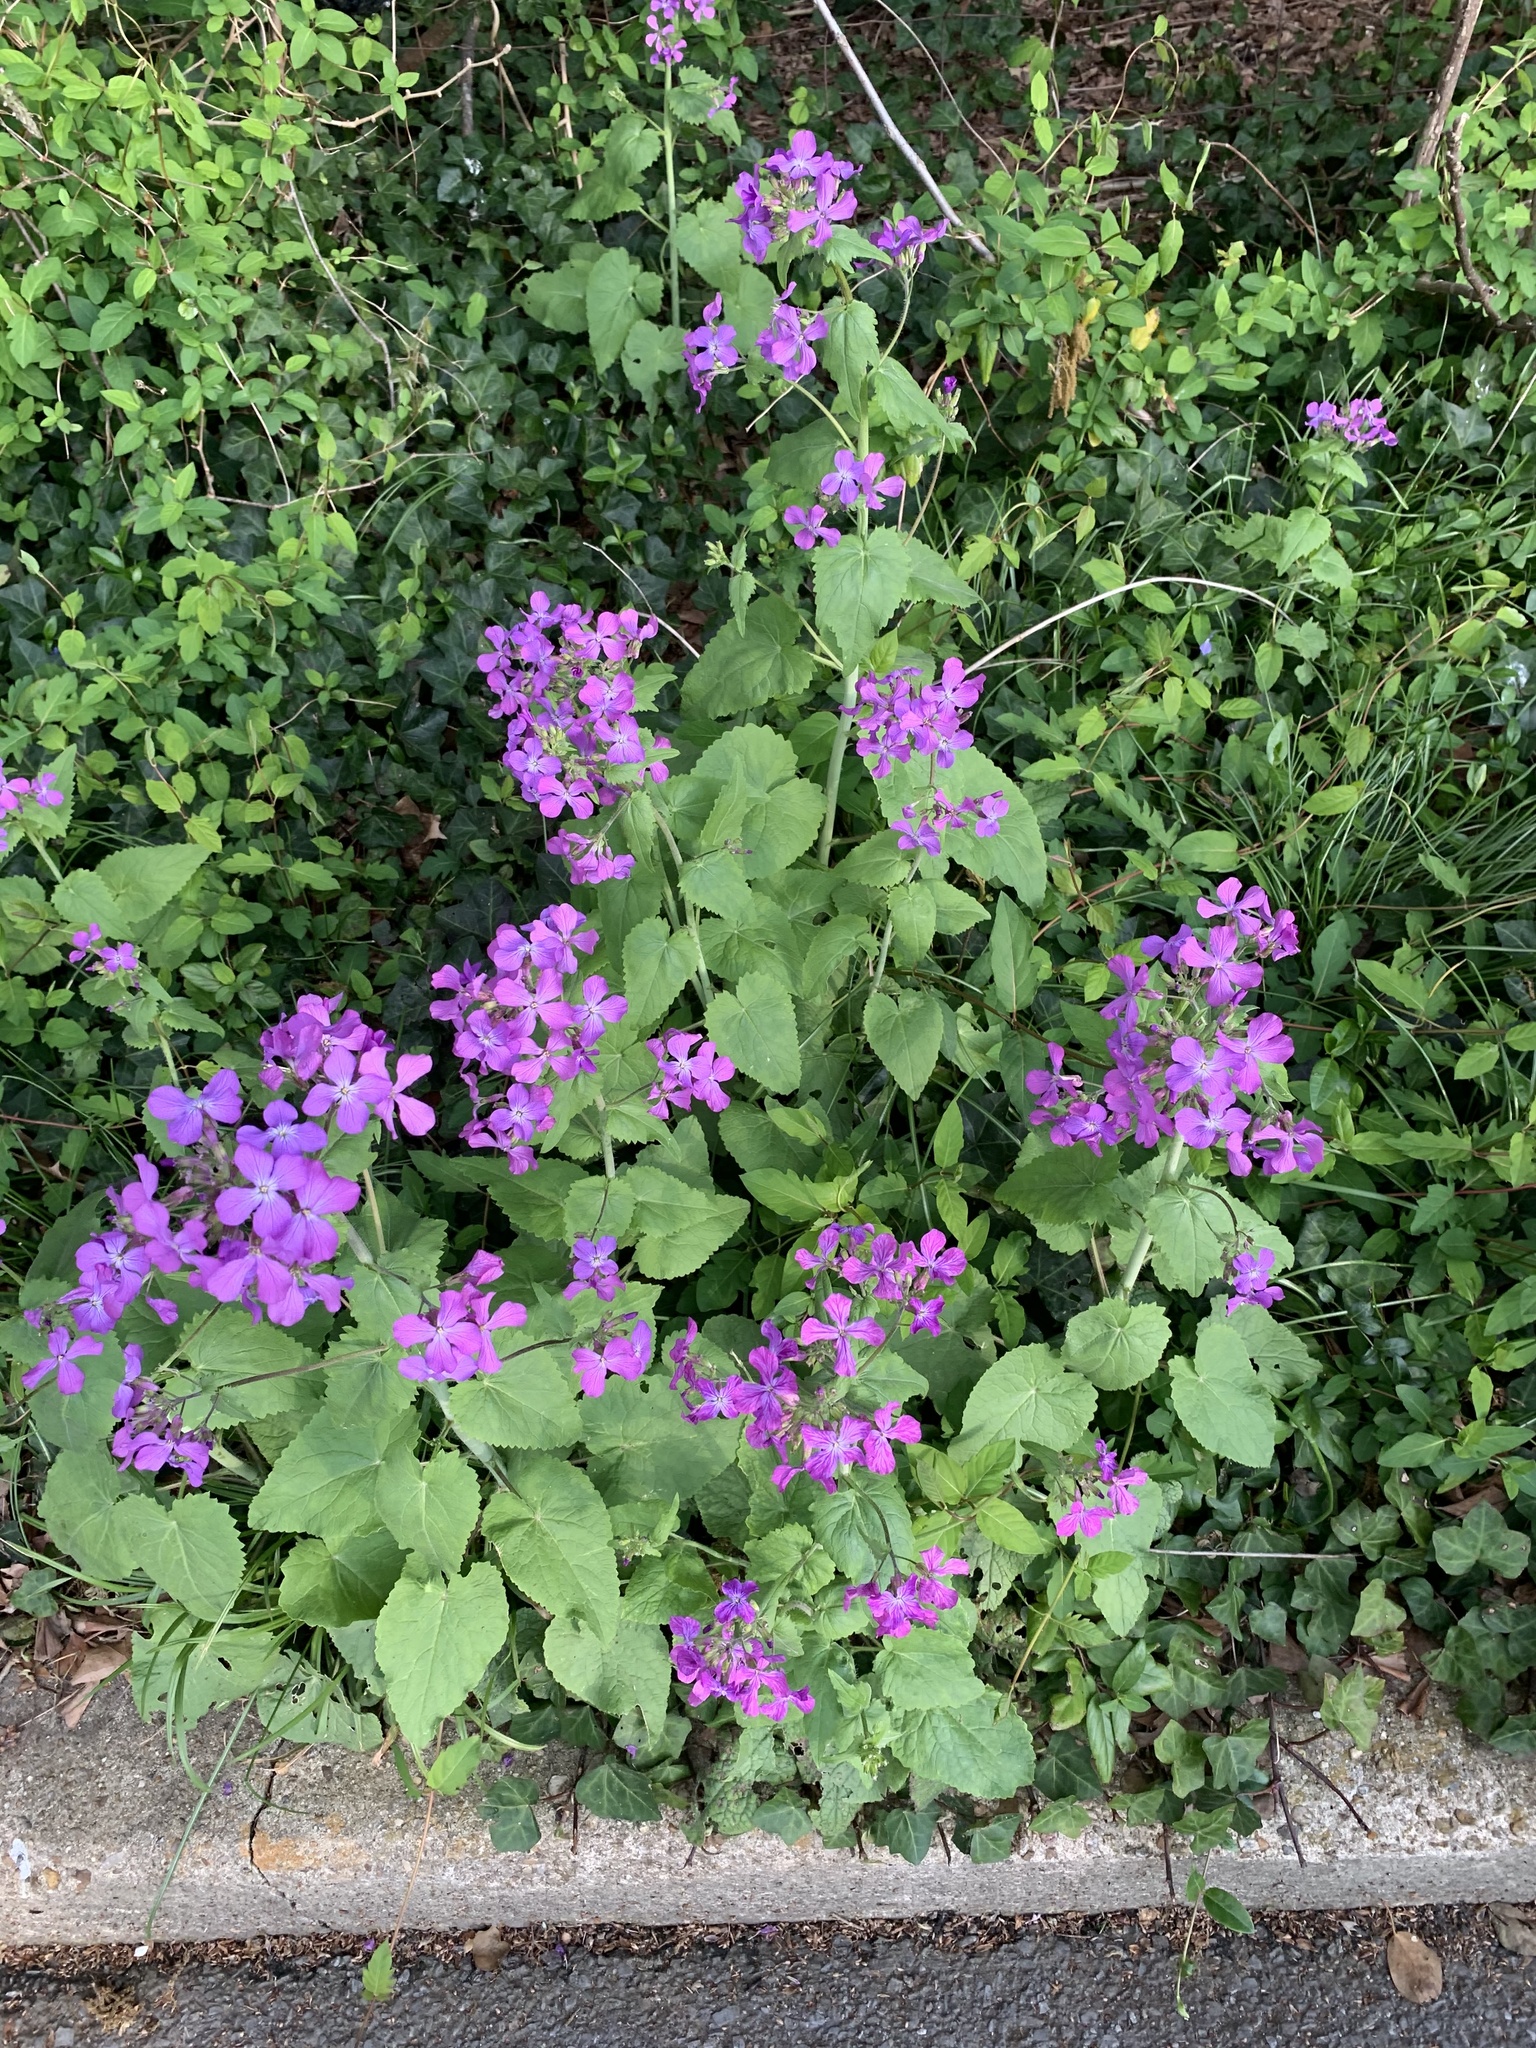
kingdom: Plantae
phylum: Tracheophyta
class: Magnoliopsida
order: Brassicales
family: Brassicaceae
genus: Lunaria
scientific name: Lunaria annua
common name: Honesty
